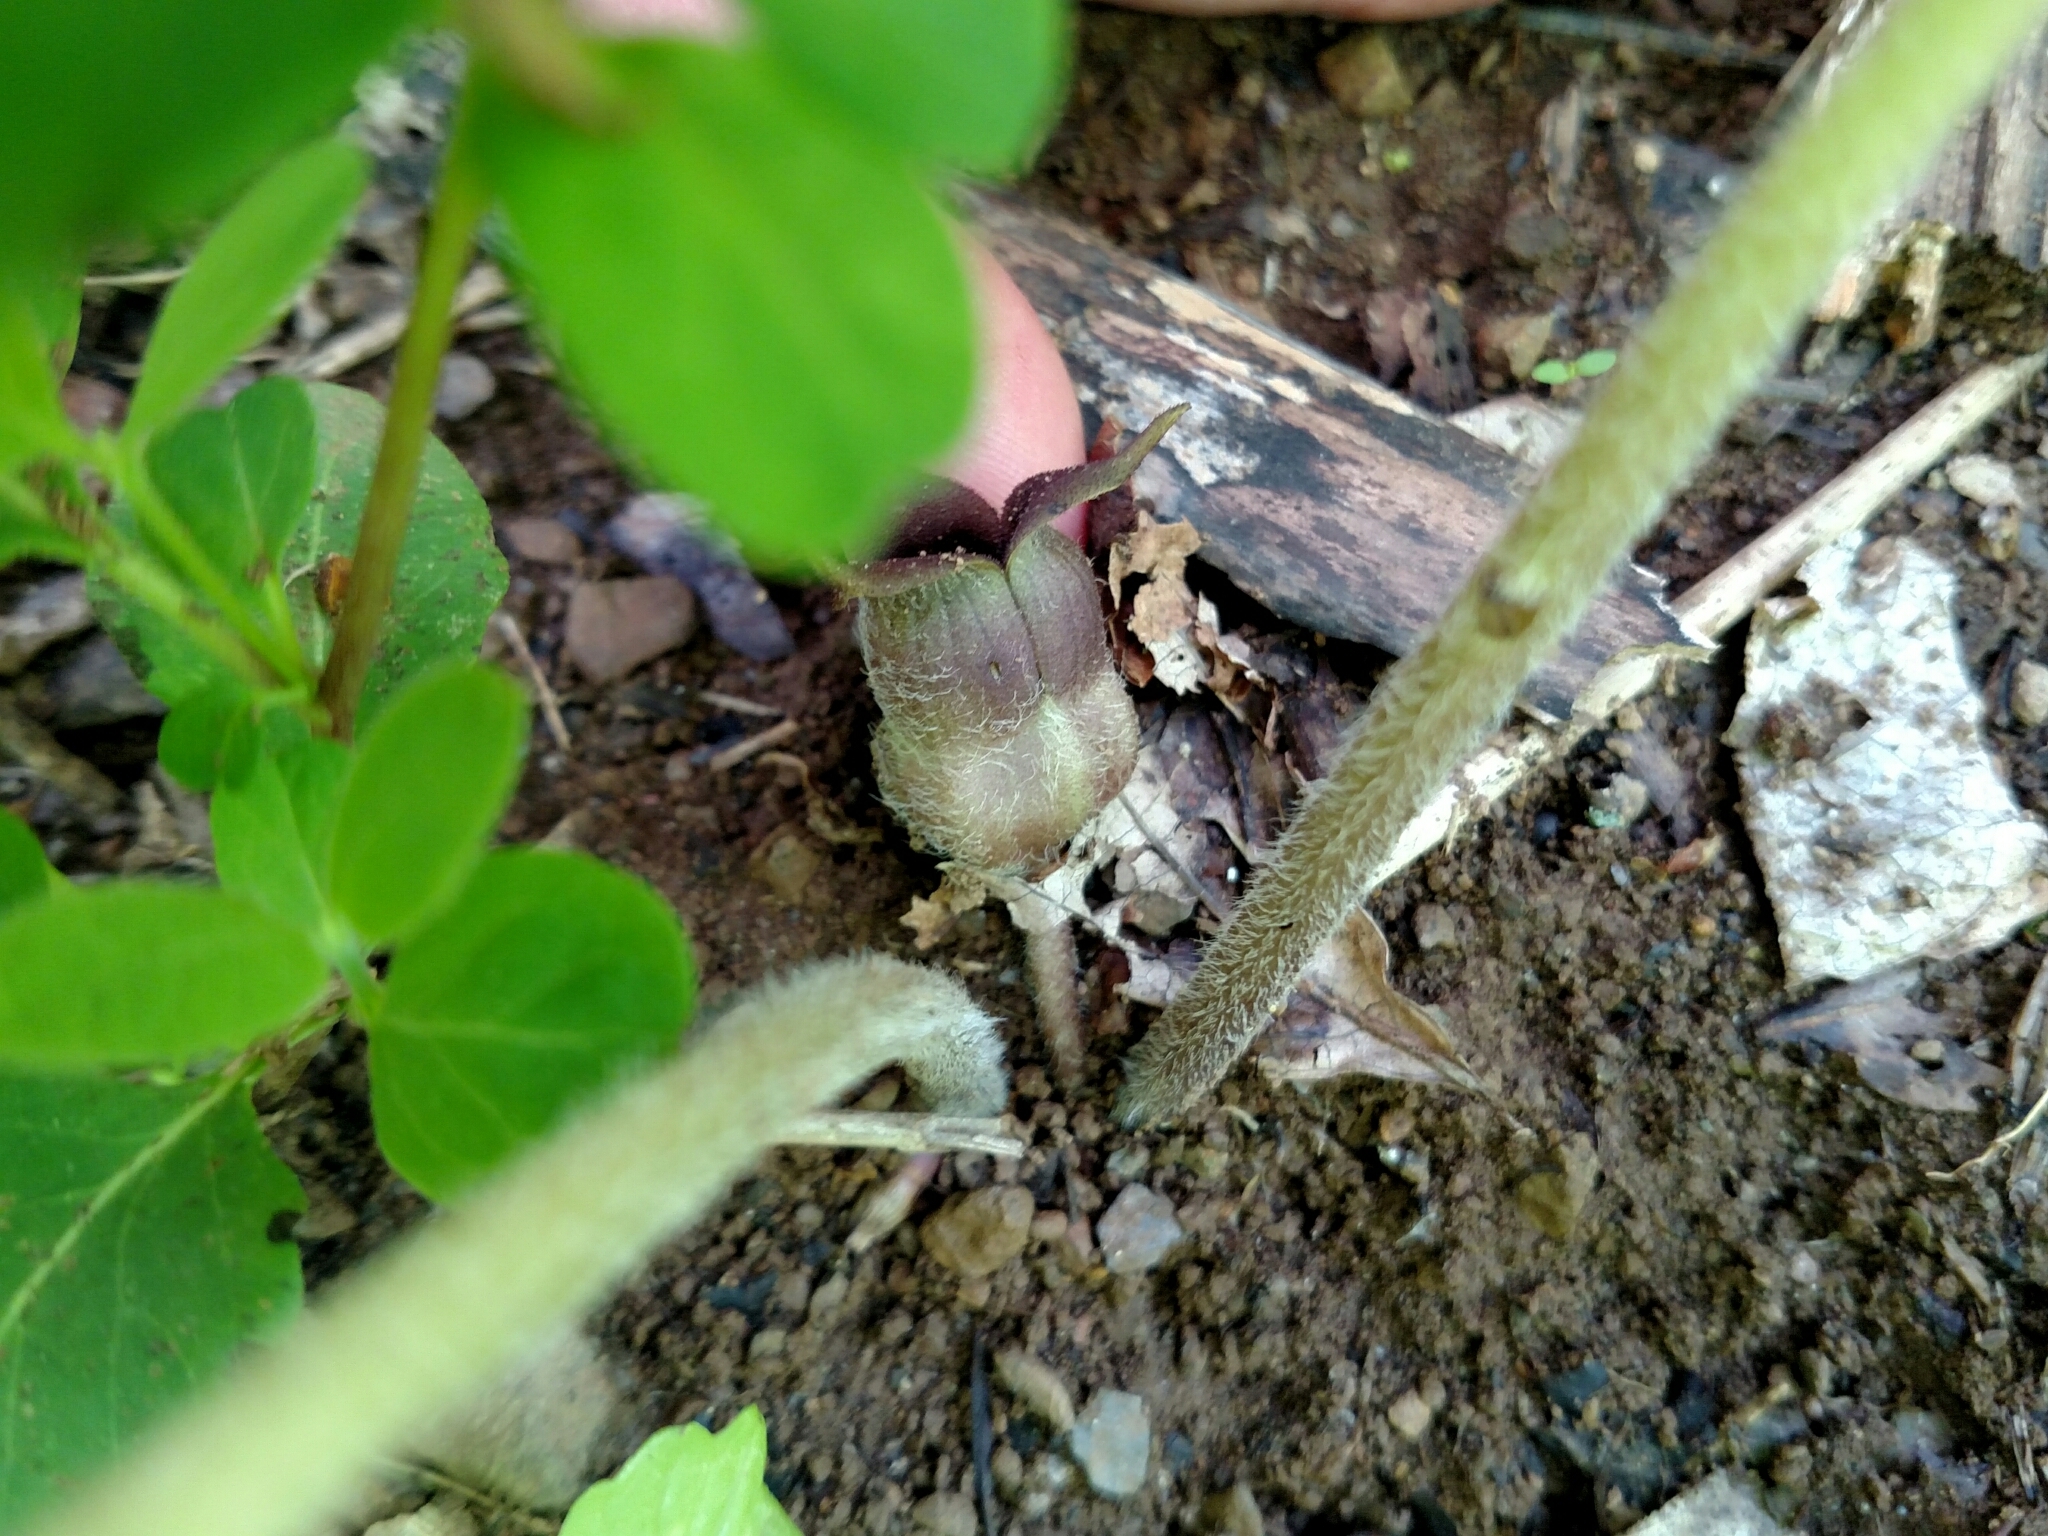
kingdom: Plantae
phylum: Tracheophyta
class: Magnoliopsida
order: Piperales
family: Aristolochiaceae
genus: Asarum
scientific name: Asarum canadense
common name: Wild ginger
